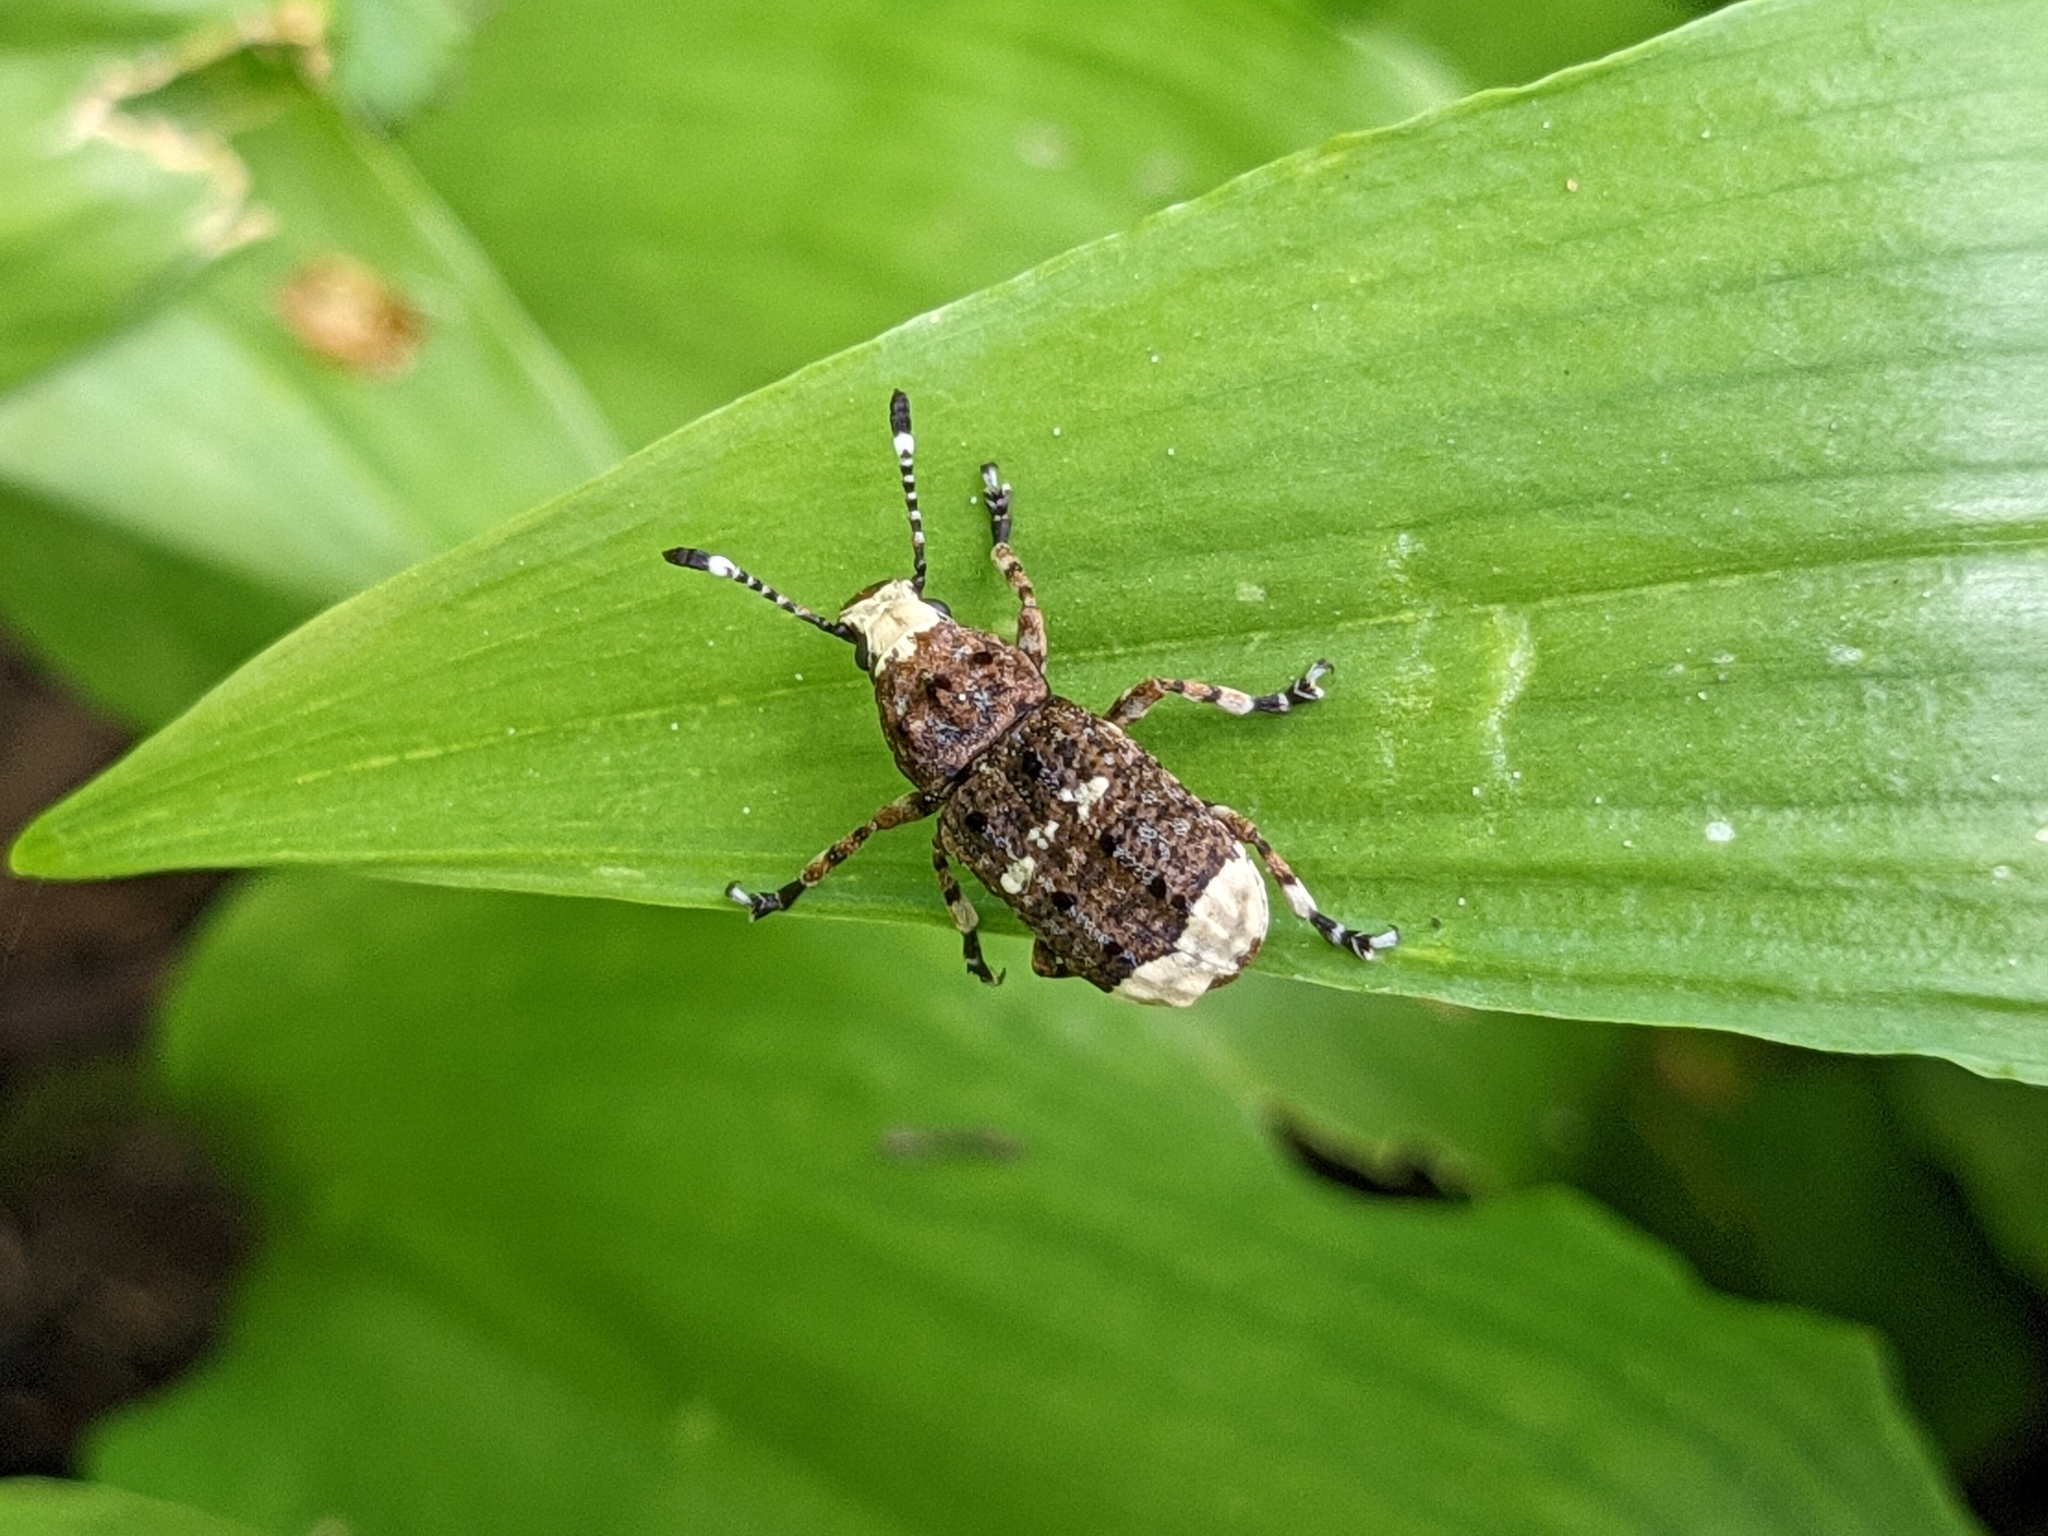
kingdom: Animalia
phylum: Arthropoda
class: Insecta
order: Coleoptera
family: Anthribidae
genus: Platystomos
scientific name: Platystomos albinus
